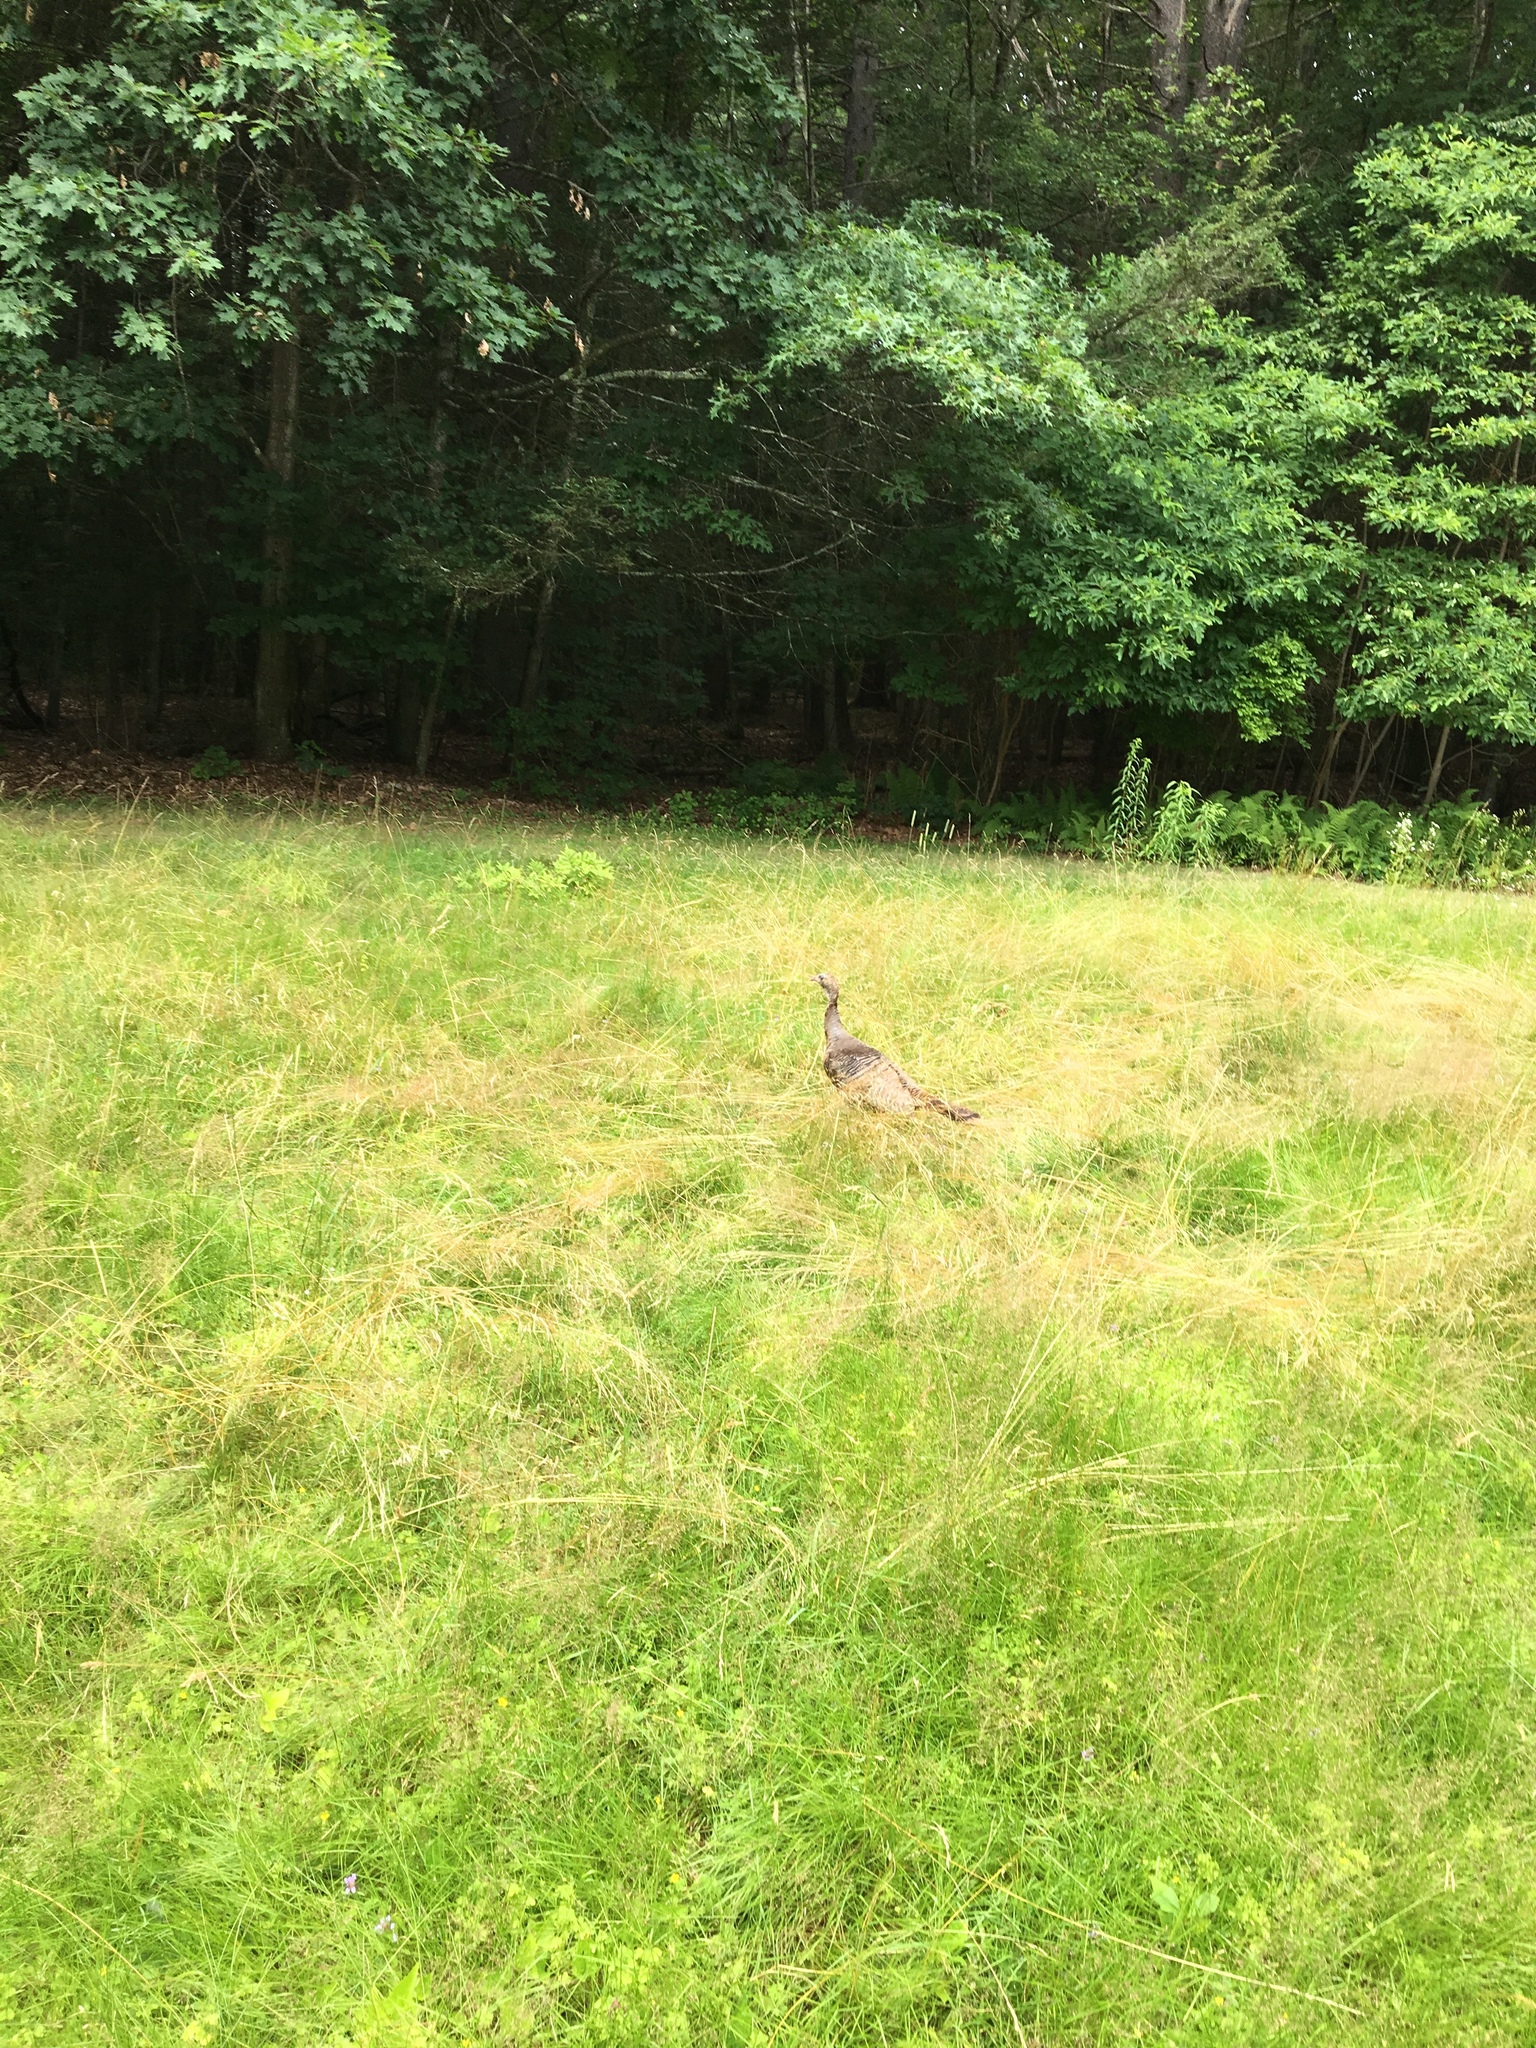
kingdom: Animalia
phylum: Chordata
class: Aves
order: Galliformes
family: Phasianidae
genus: Meleagris
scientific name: Meleagris gallopavo
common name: Wild turkey
